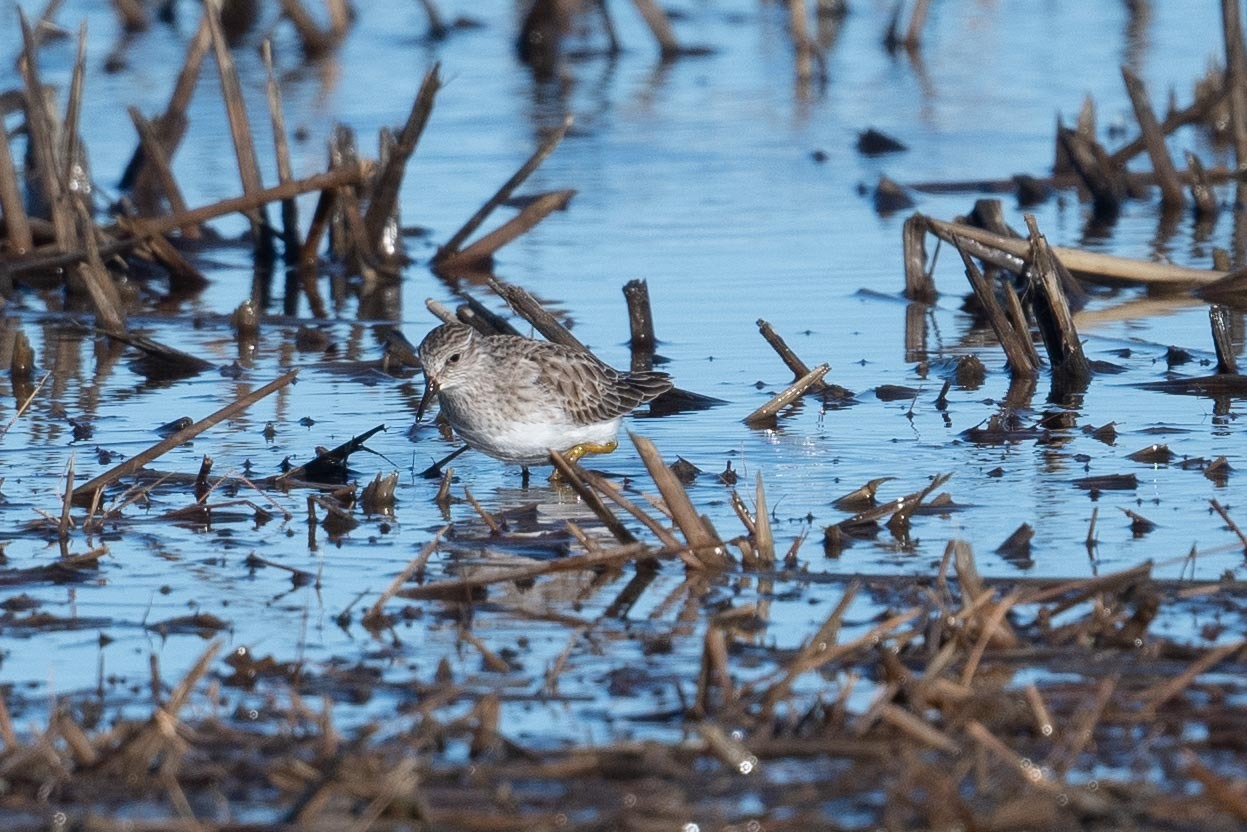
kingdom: Animalia
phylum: Chordata
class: Aves
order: Charadriiformes
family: Scolopacidae
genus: Calidris
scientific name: Calidris minutilla
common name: Least sandpiper
